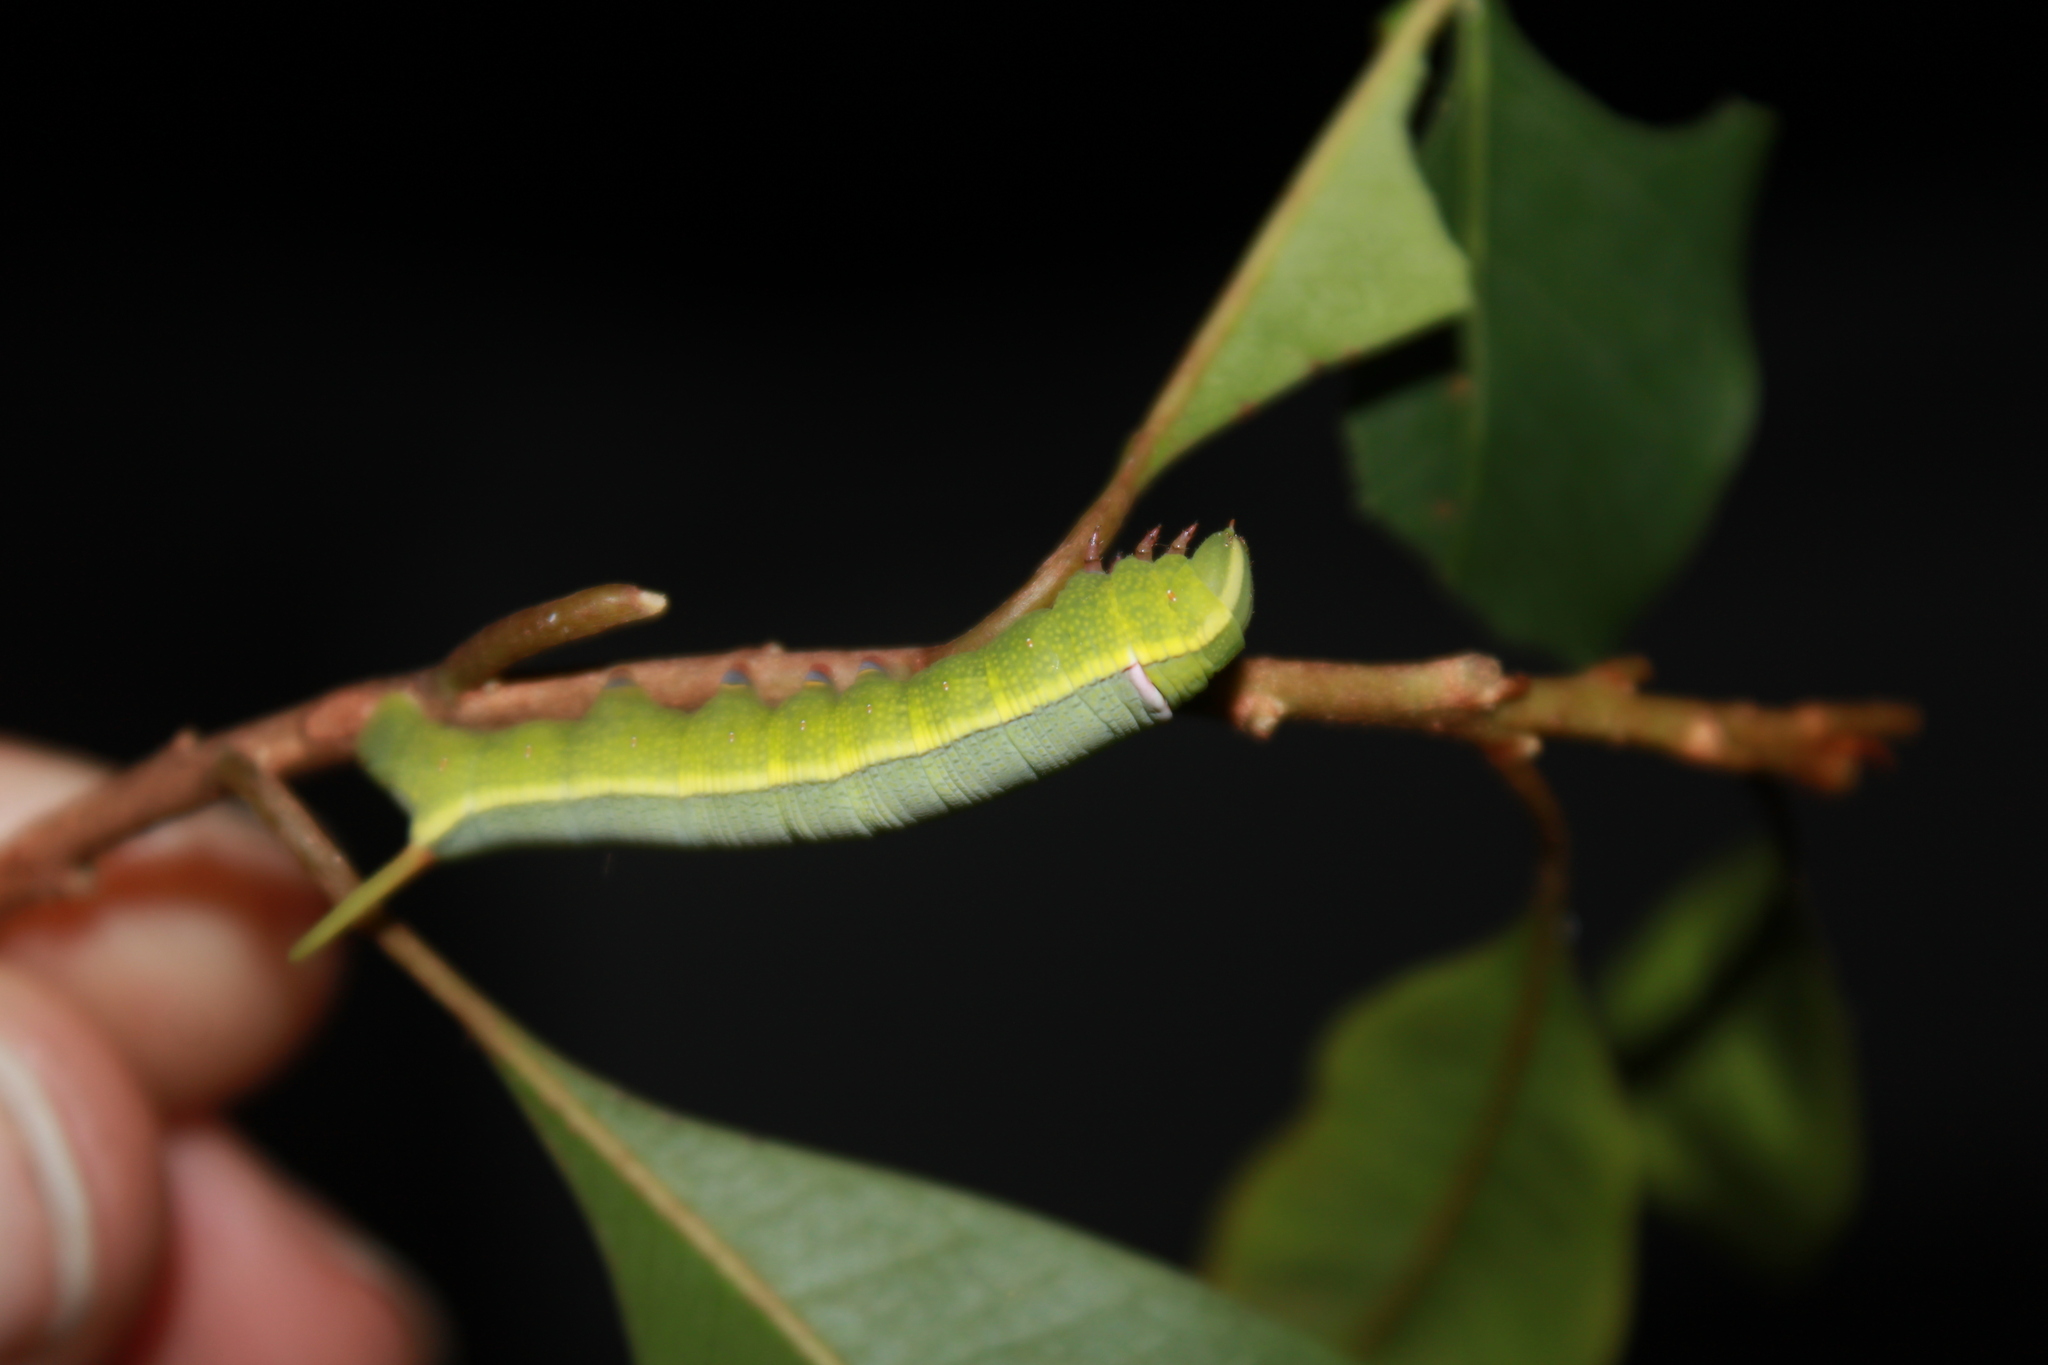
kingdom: Animalia
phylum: Arthropoda
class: Insecta
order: Lepidoptera
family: Sphingidae
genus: Erinnyis
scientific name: Erinnyis ello
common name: Ello sphinx
